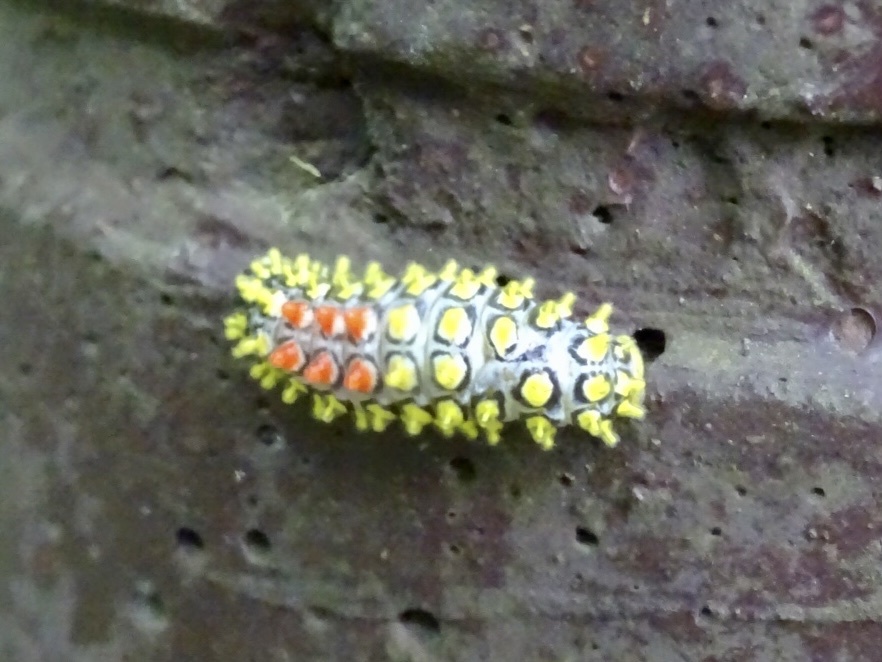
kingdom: Animalia
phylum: Arthropoda
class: Insecta
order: Lepidoptera
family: Zygaenidae
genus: Cyclosia
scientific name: Cyclosia papilionaris
